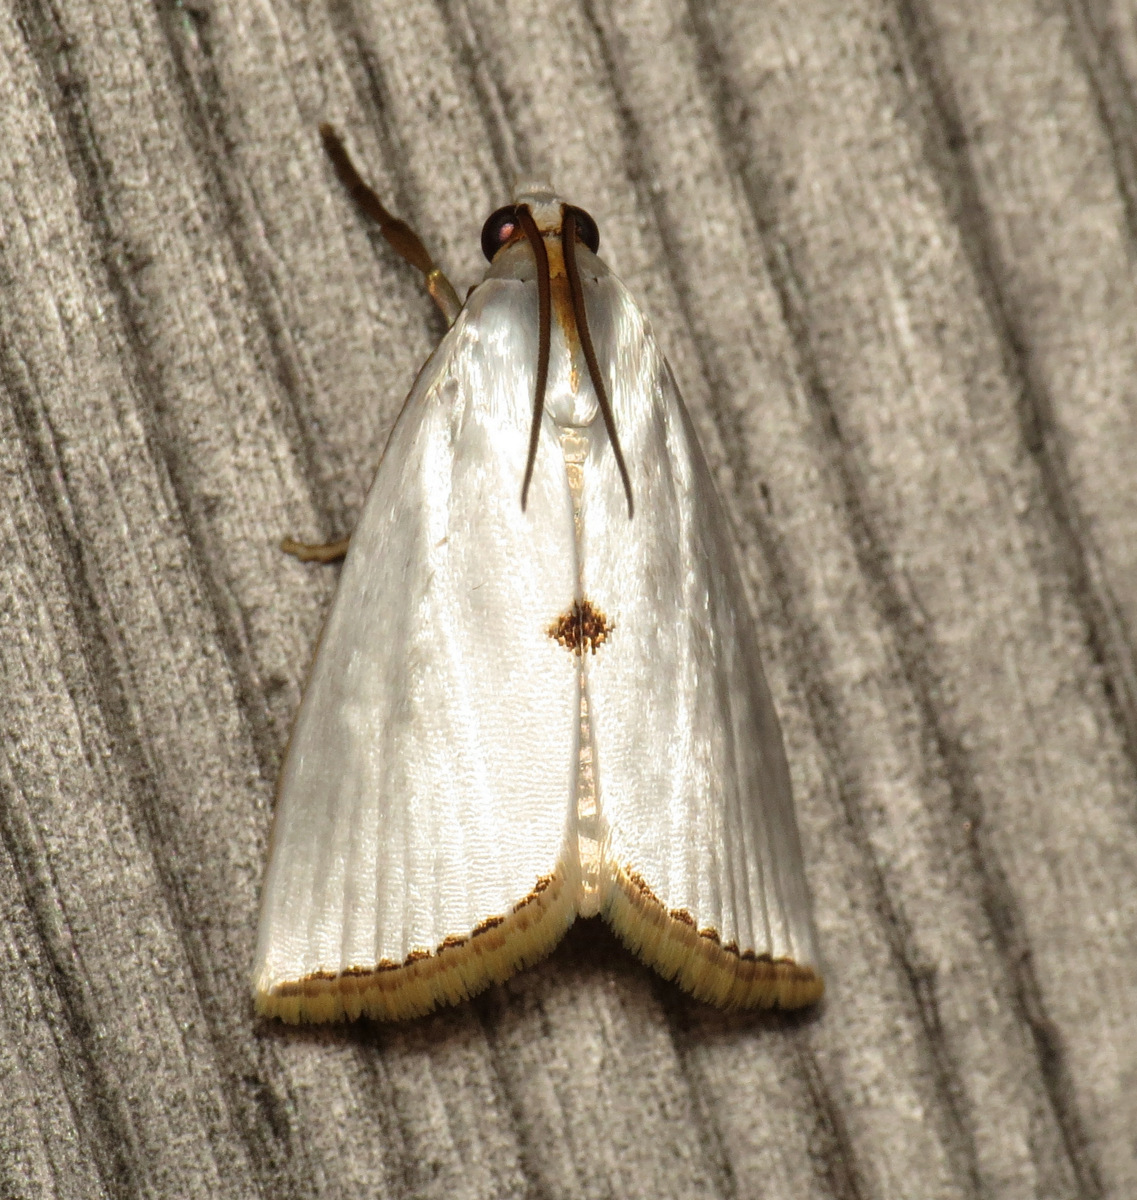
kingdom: Animalia
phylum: Arthropoda
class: Insecta
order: Lepidoptera
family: Crambidae
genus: Argyria
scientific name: Argyria nivalis
